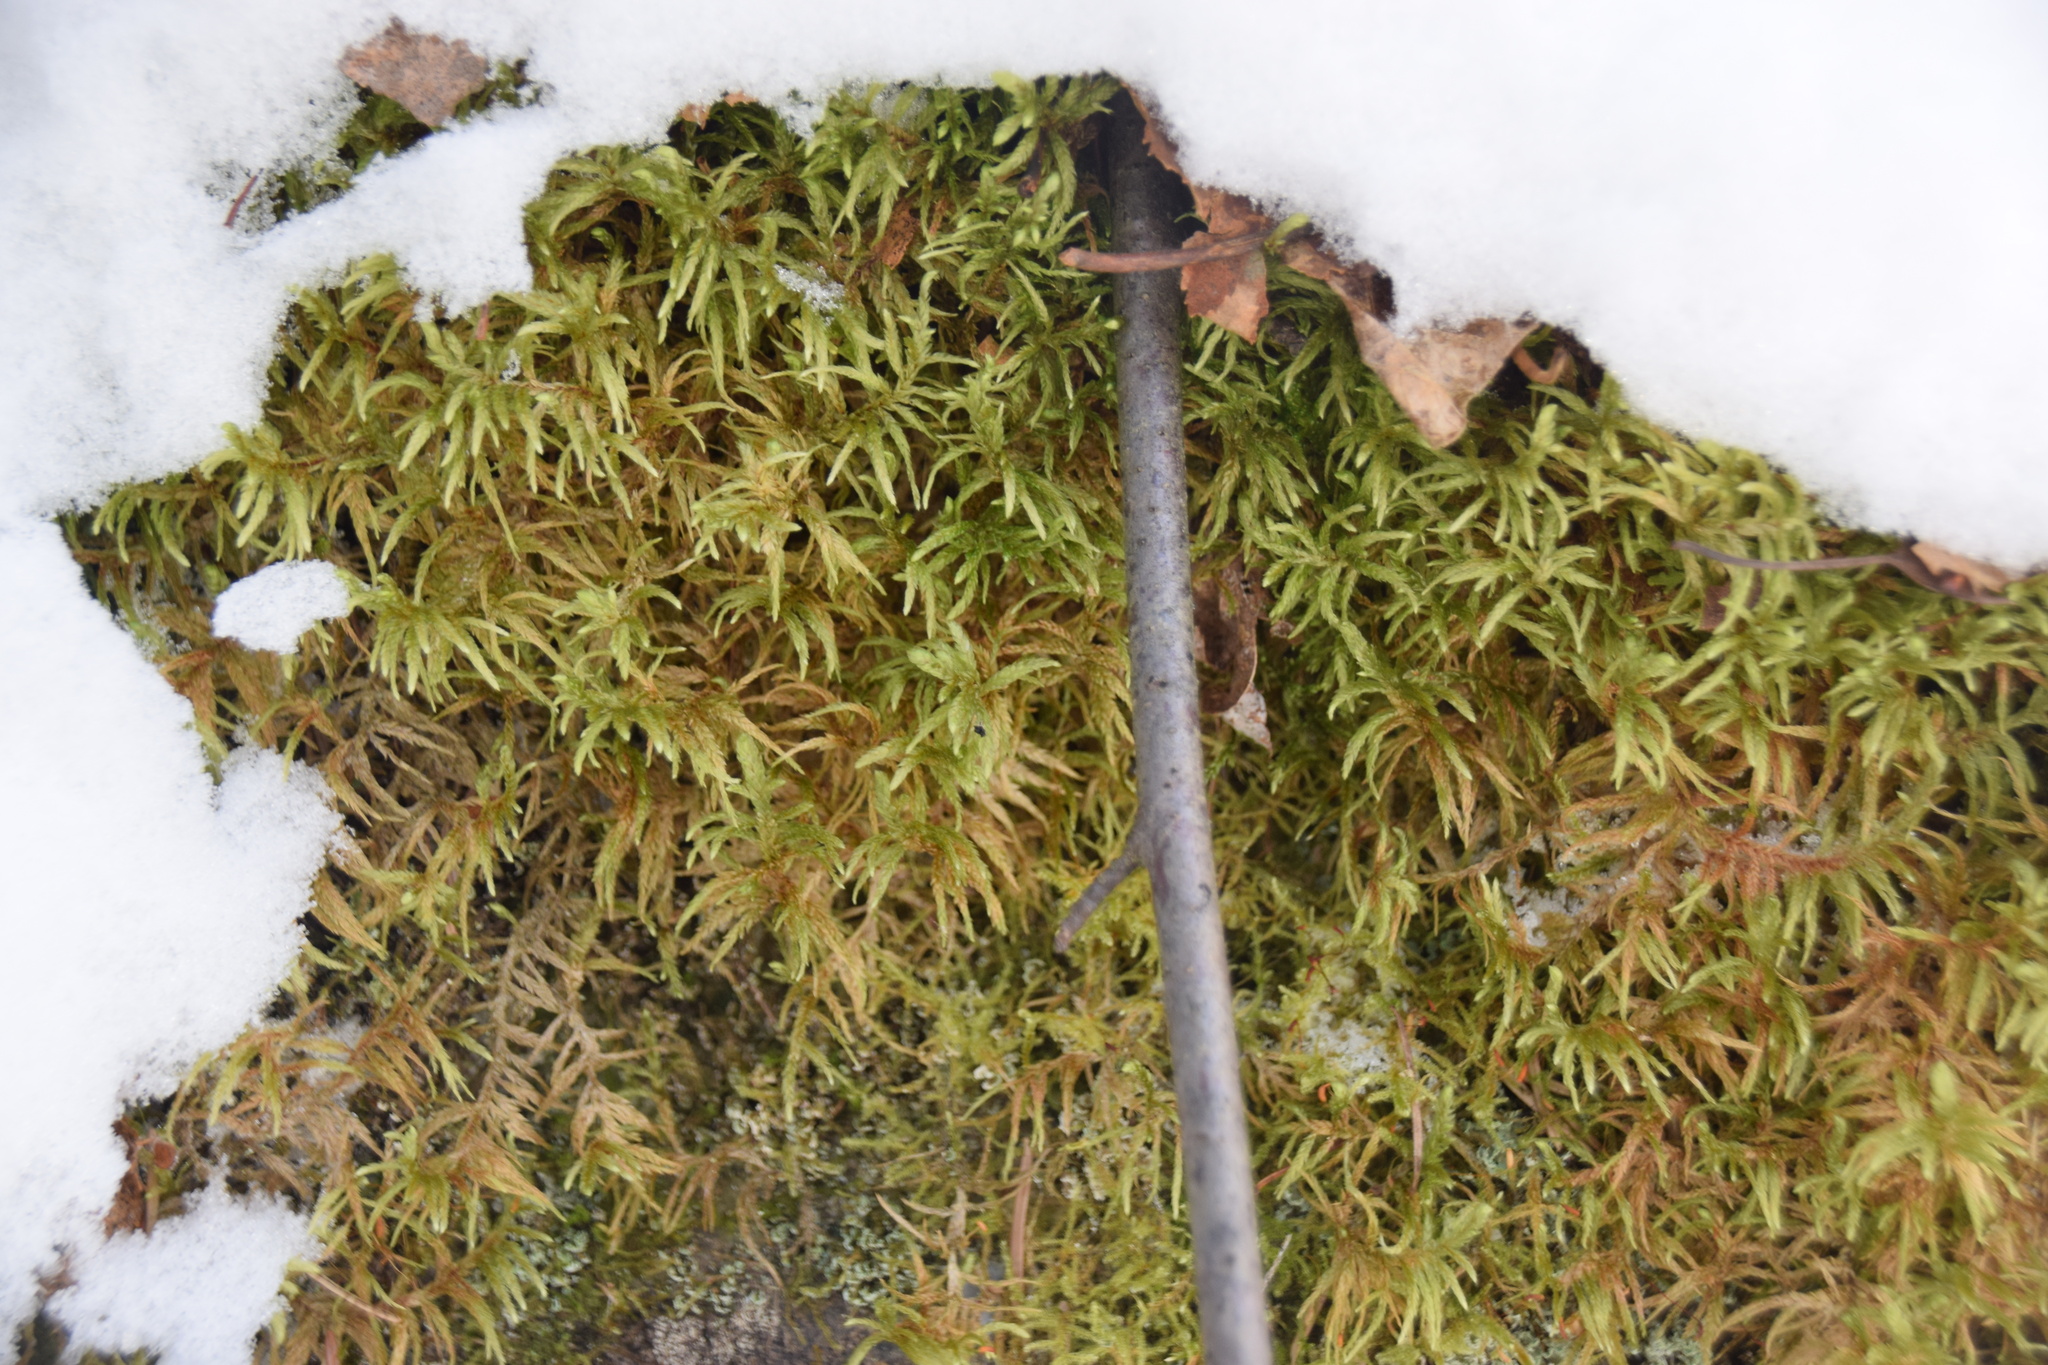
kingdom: Plantae
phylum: Bryophyta
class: Bryopsida
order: Hypnales
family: Hylocomiaceae
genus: Pleurozium
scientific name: Pleurozium schreberi
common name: Red-stemmed feather moss
